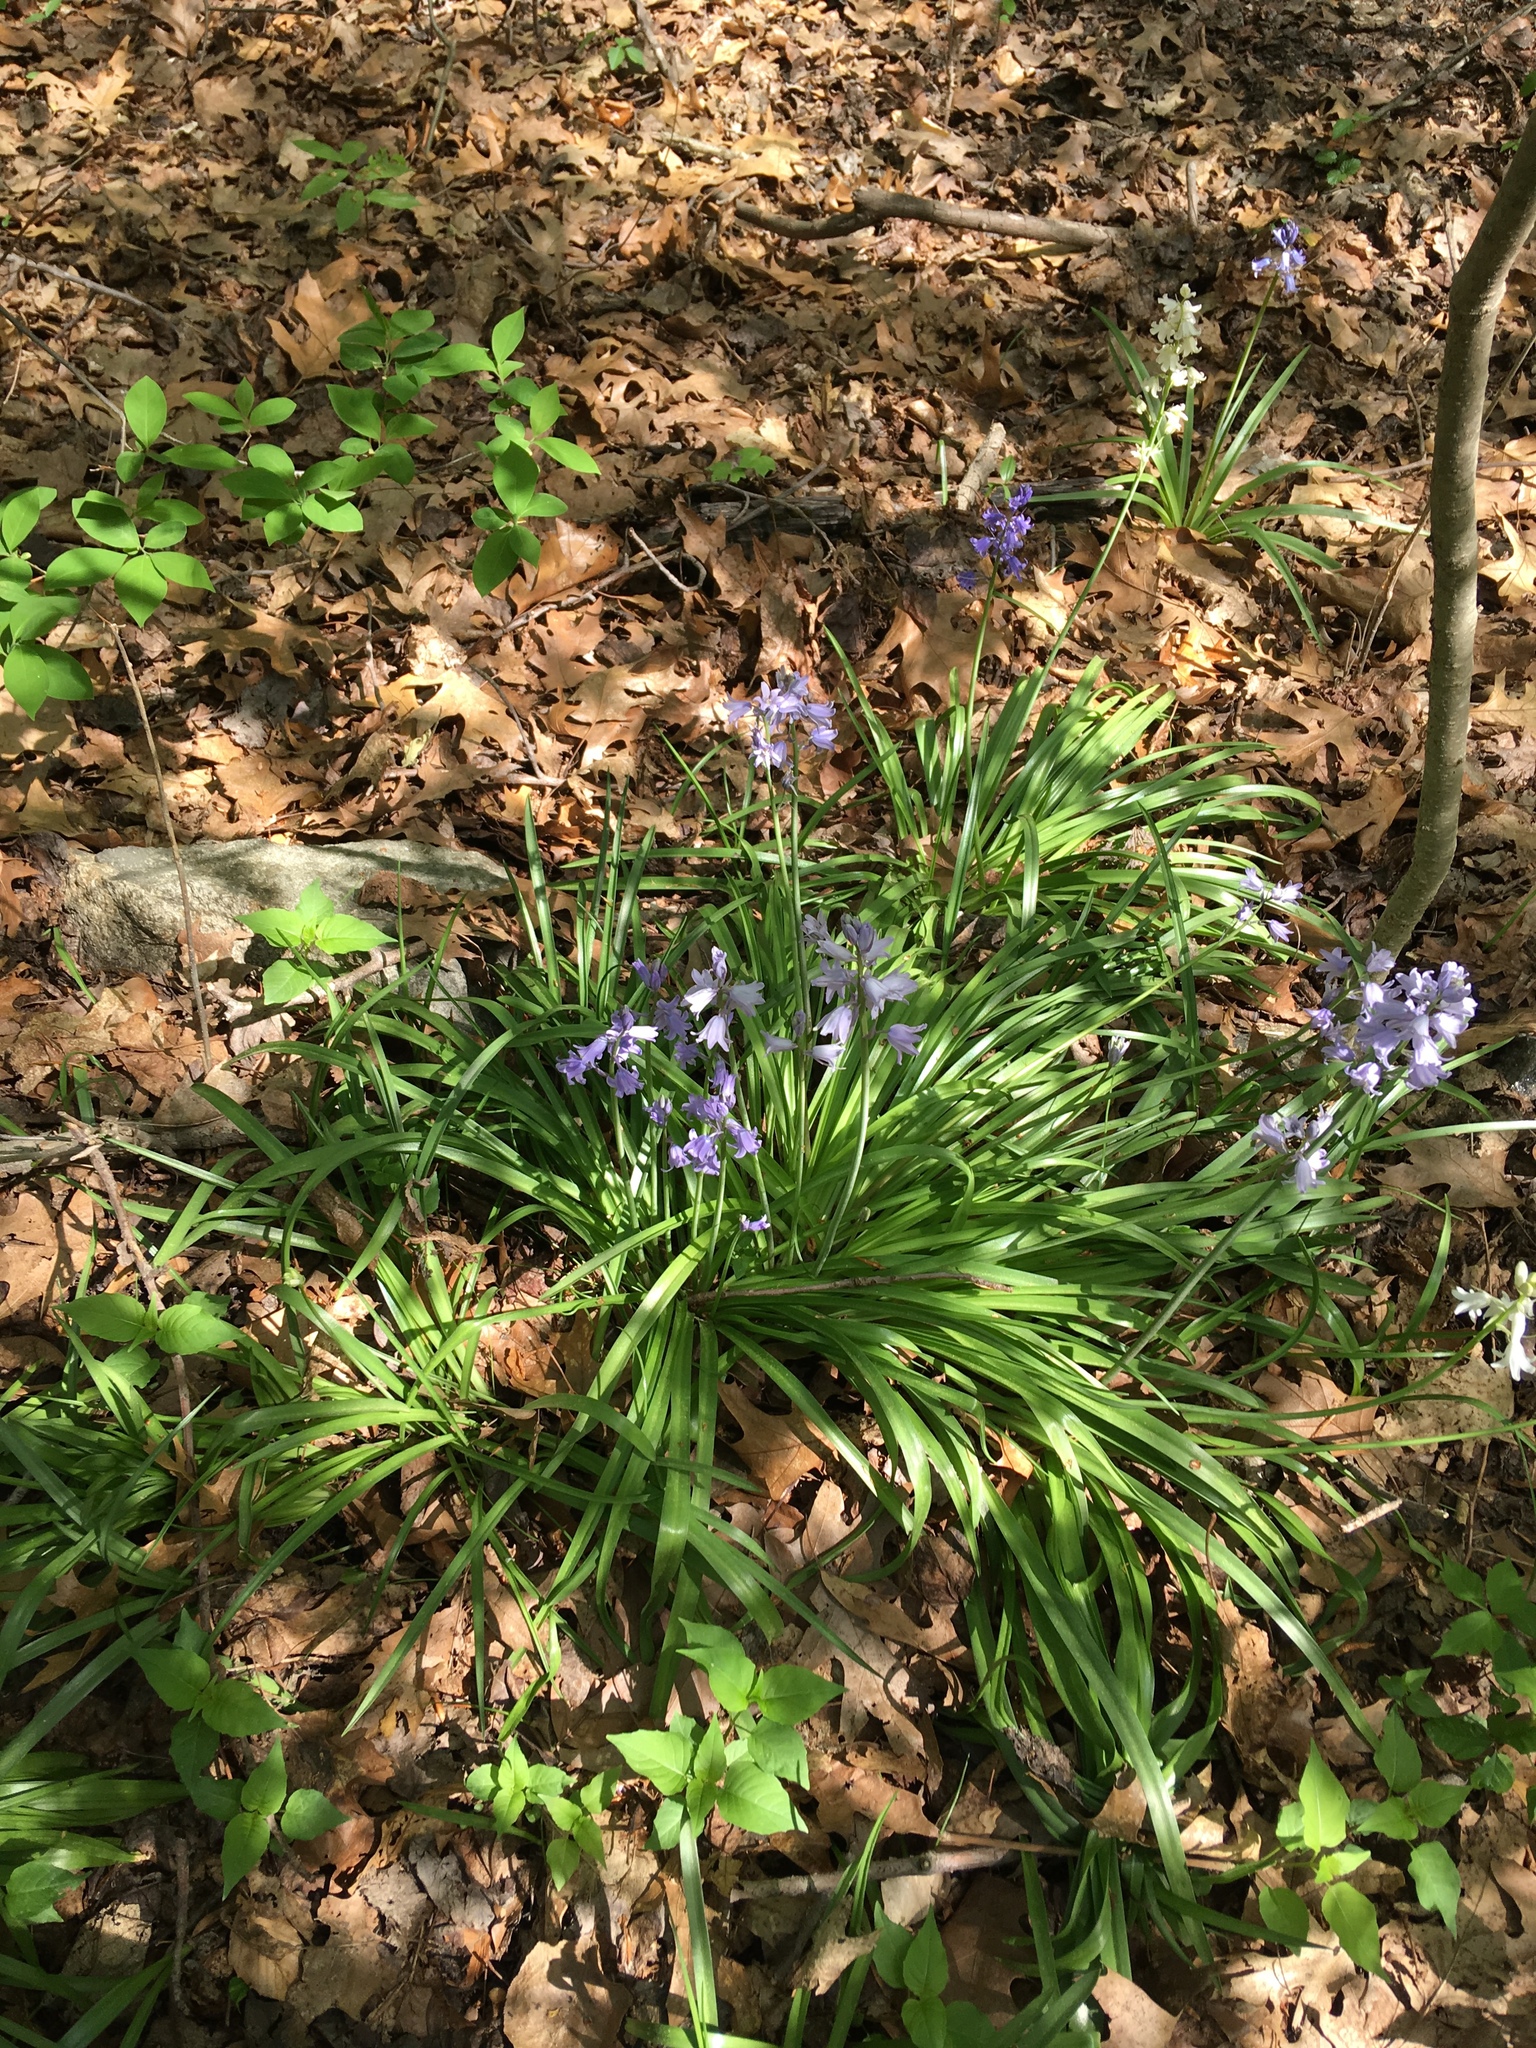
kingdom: Plantae
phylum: Tracheophyta
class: Liliopsida
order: Asparagales
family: Asparagaceae
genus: Hyacinthoides
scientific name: Hyacinthoides hispanica
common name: Spanish bluebell
